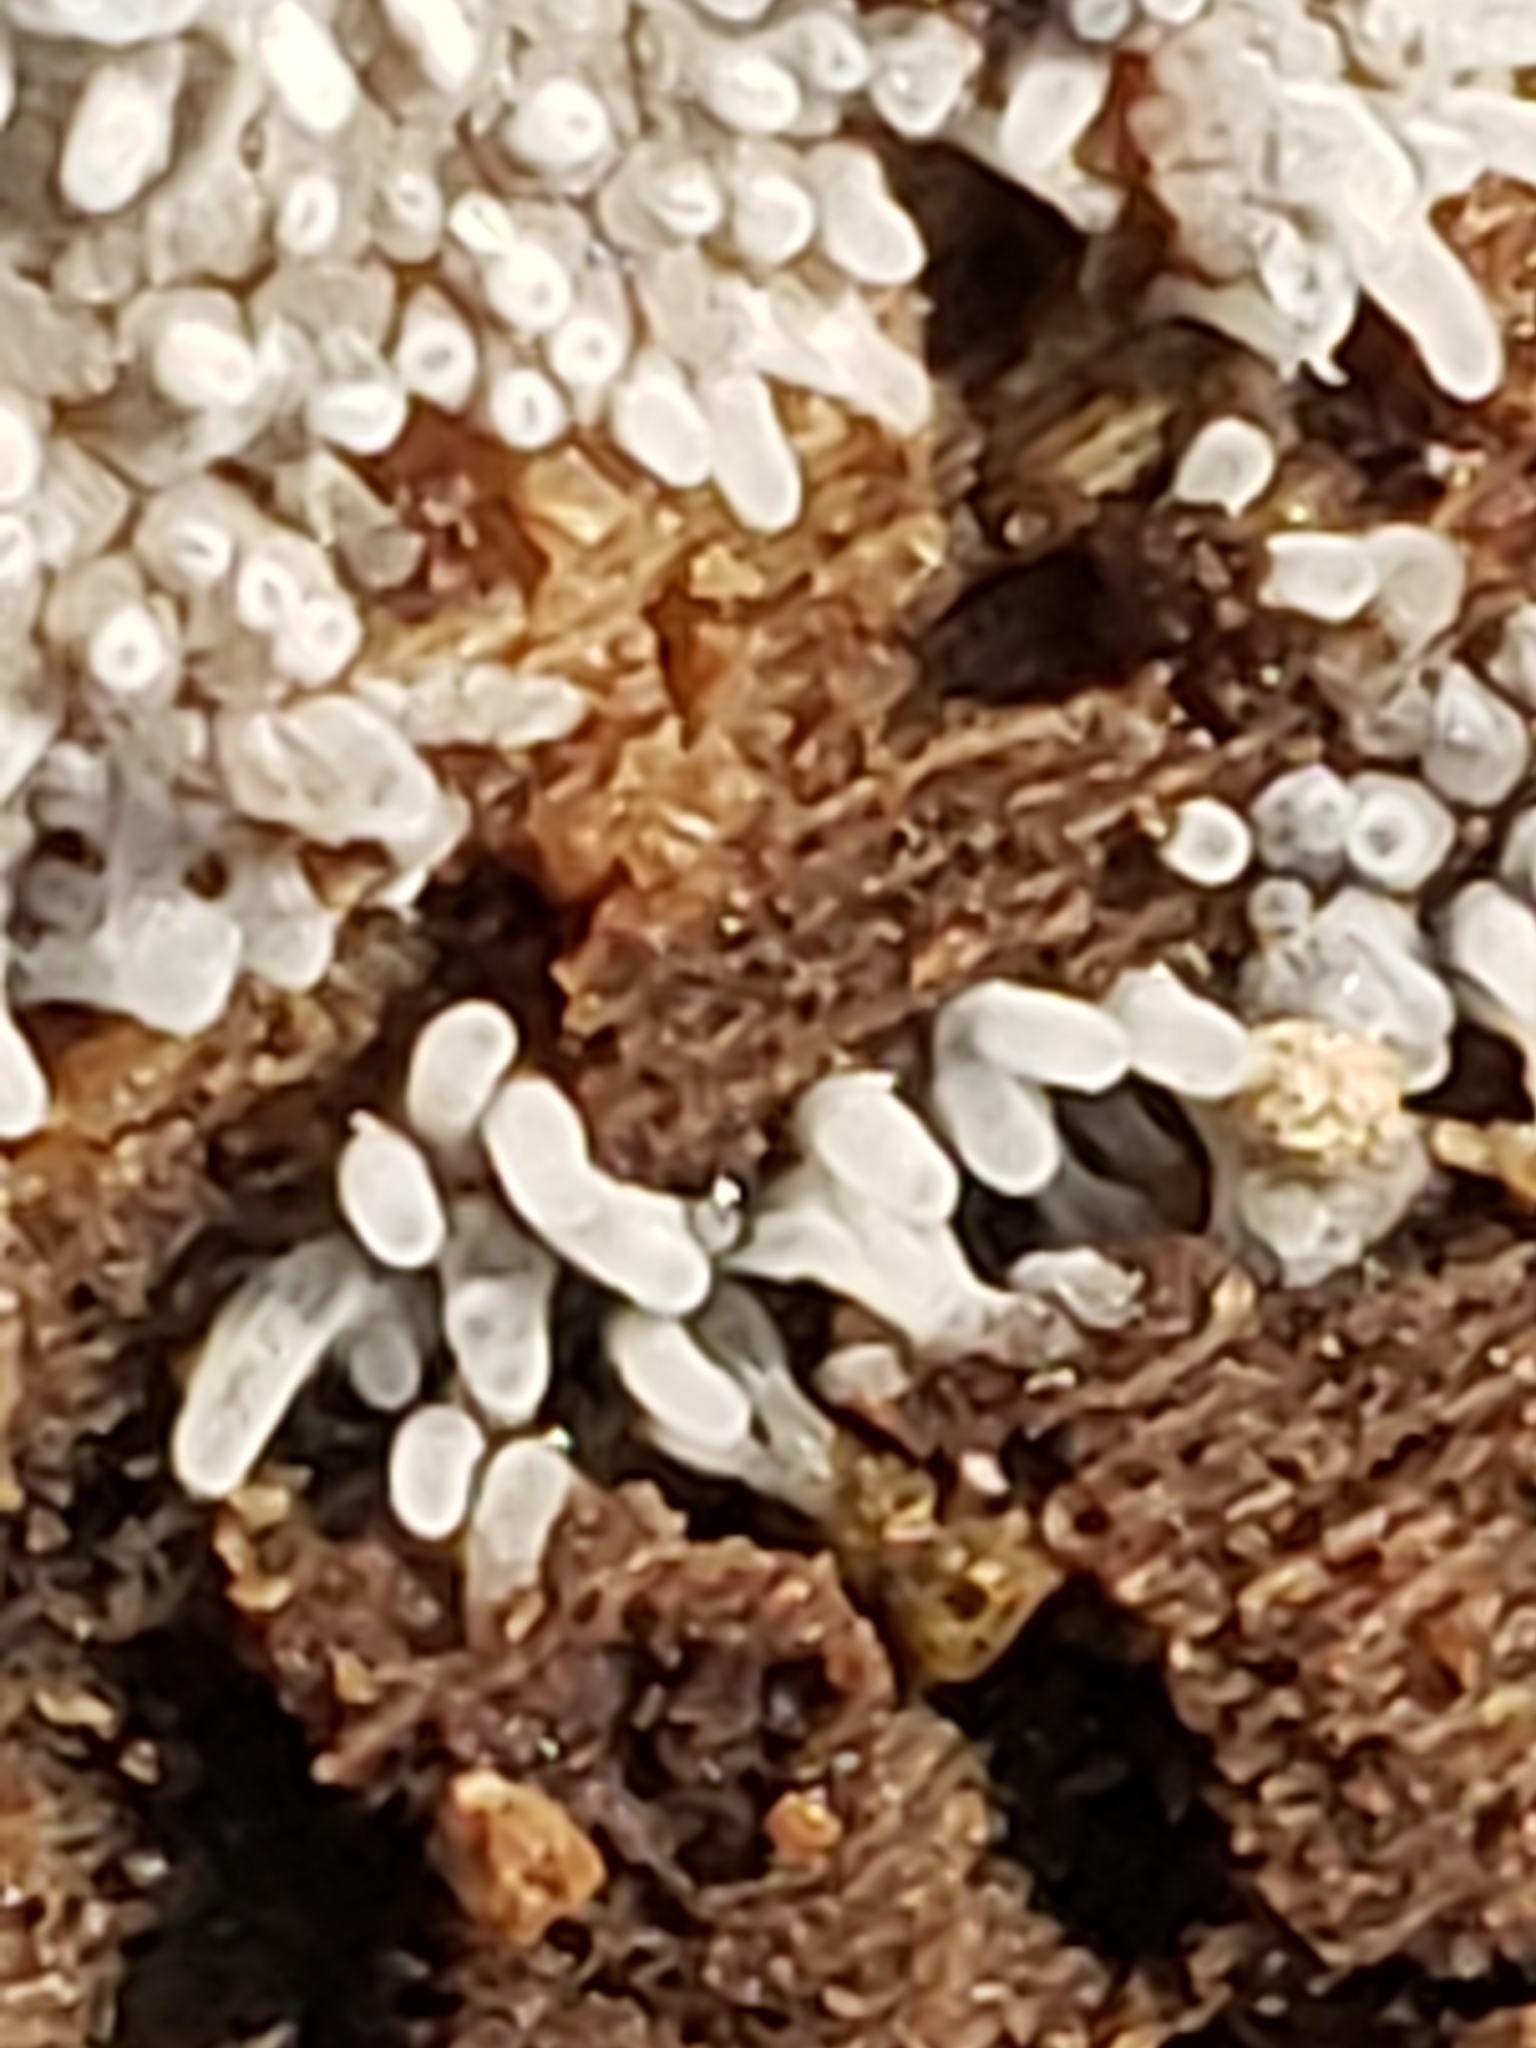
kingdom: Protozoa
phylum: Mycetozoa
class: Protosteliomycetes
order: Ceratiomyxales
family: Ceratiomyxaceae
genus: Ceratiomyxa
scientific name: Ceratiomyxa fruticulosa
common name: Honeycomb coral slime mold
